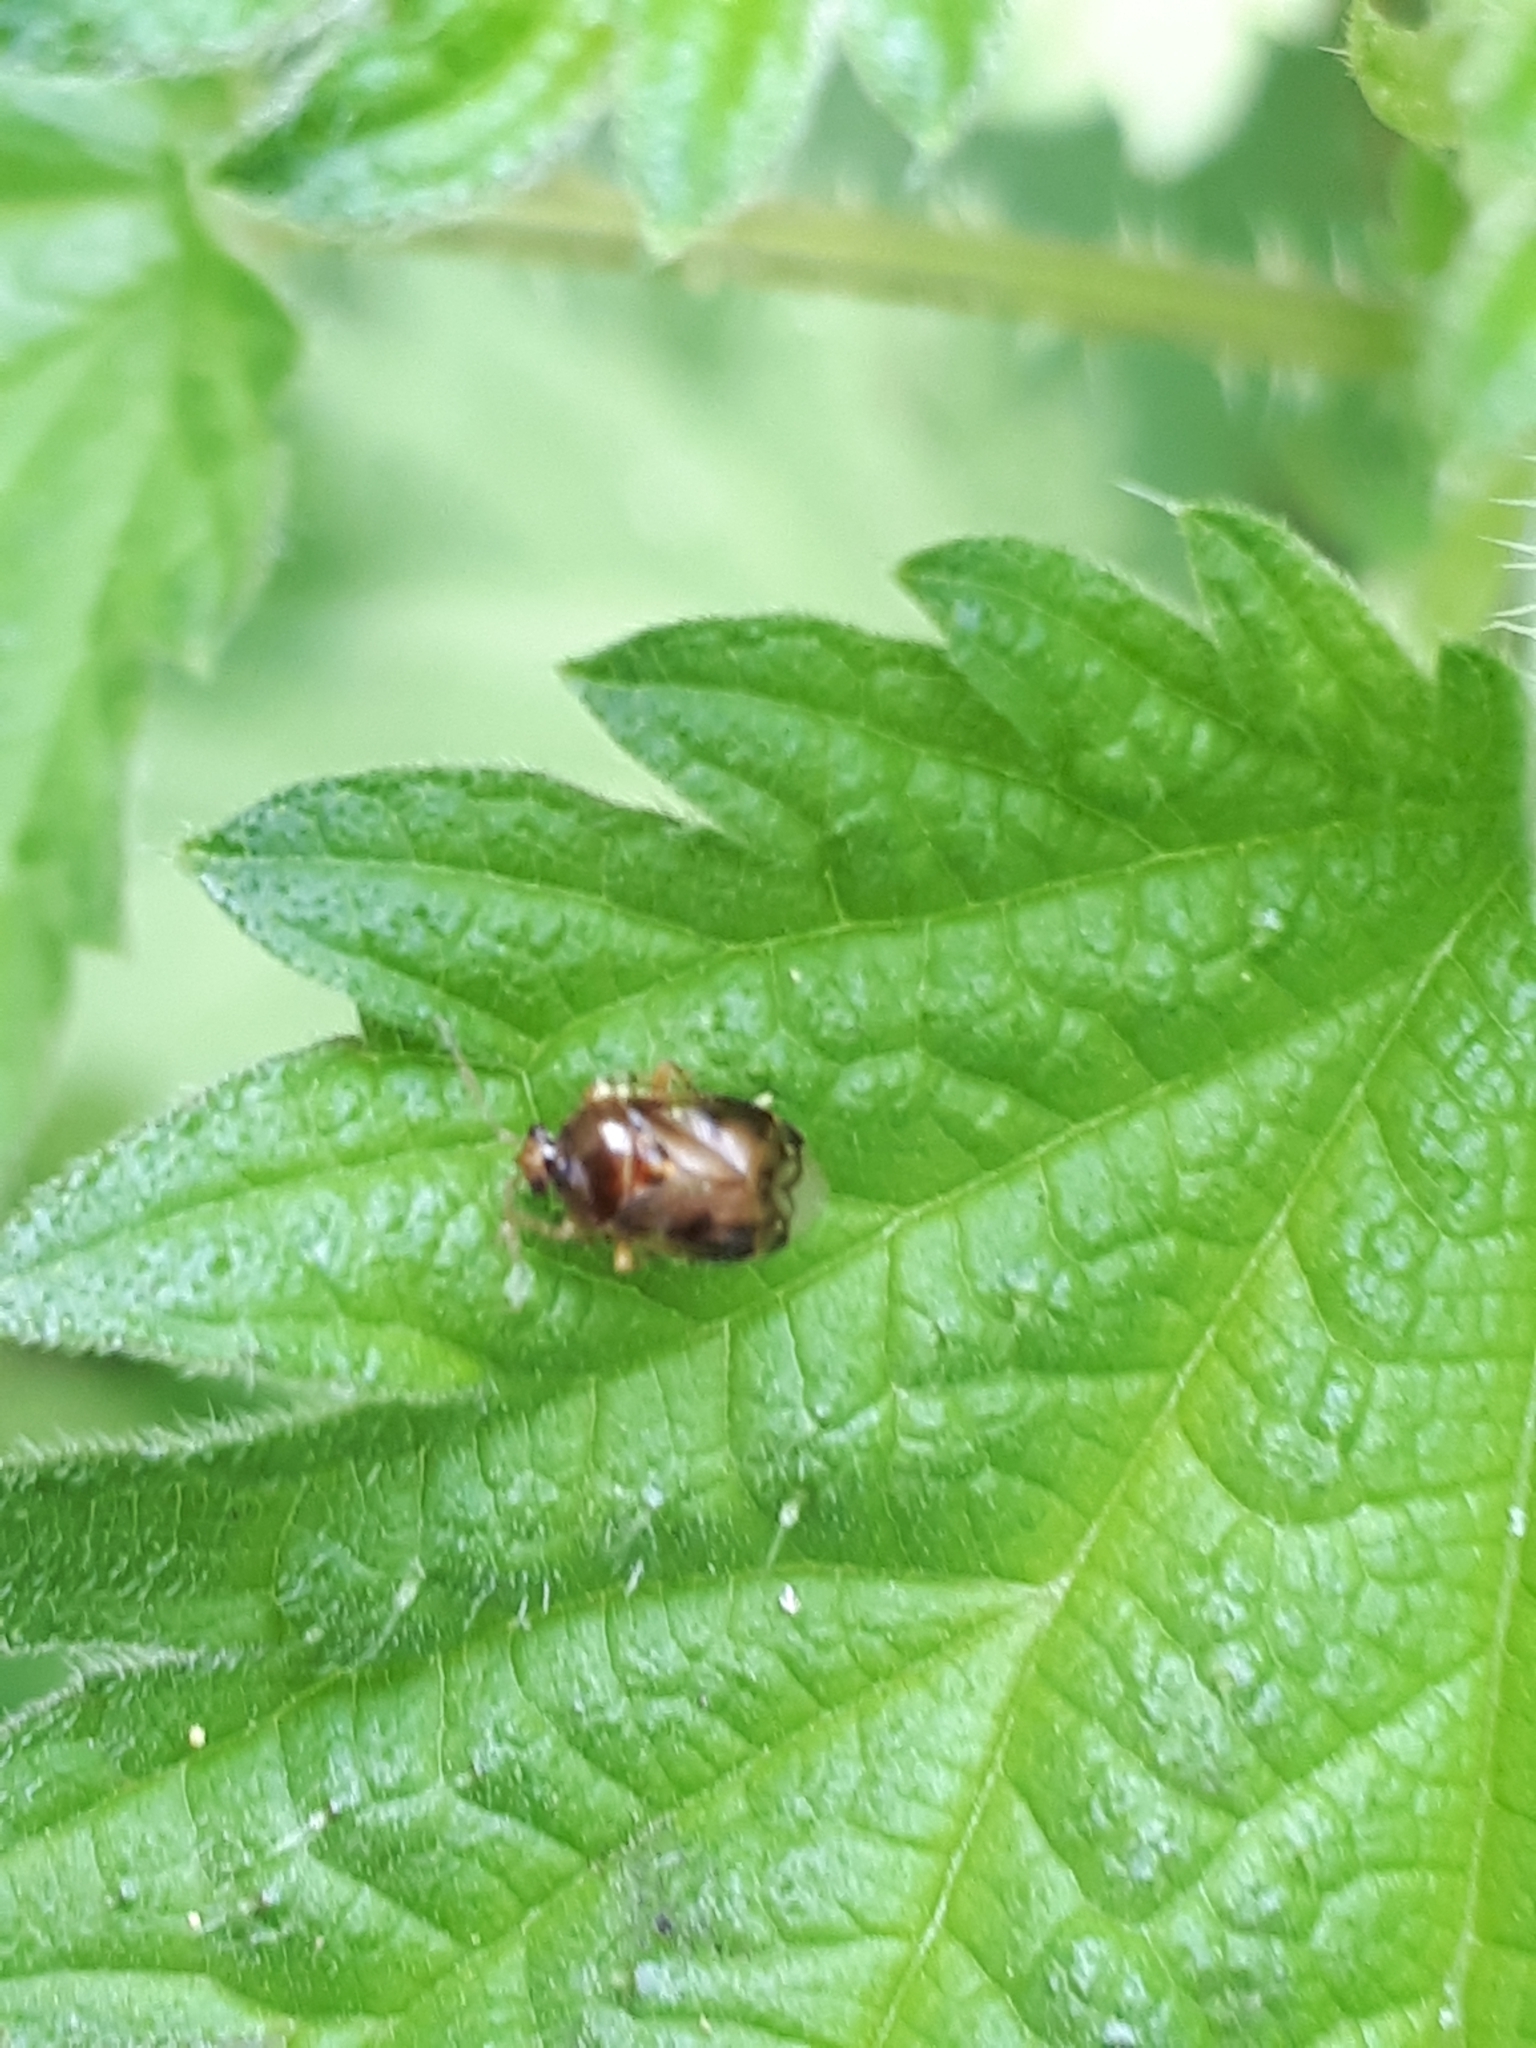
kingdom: Animalia
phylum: Arthropoda
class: Insecta
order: Hemiptera
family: Miridae
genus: Deraeocoris
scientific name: Deraeocoris lutescens
